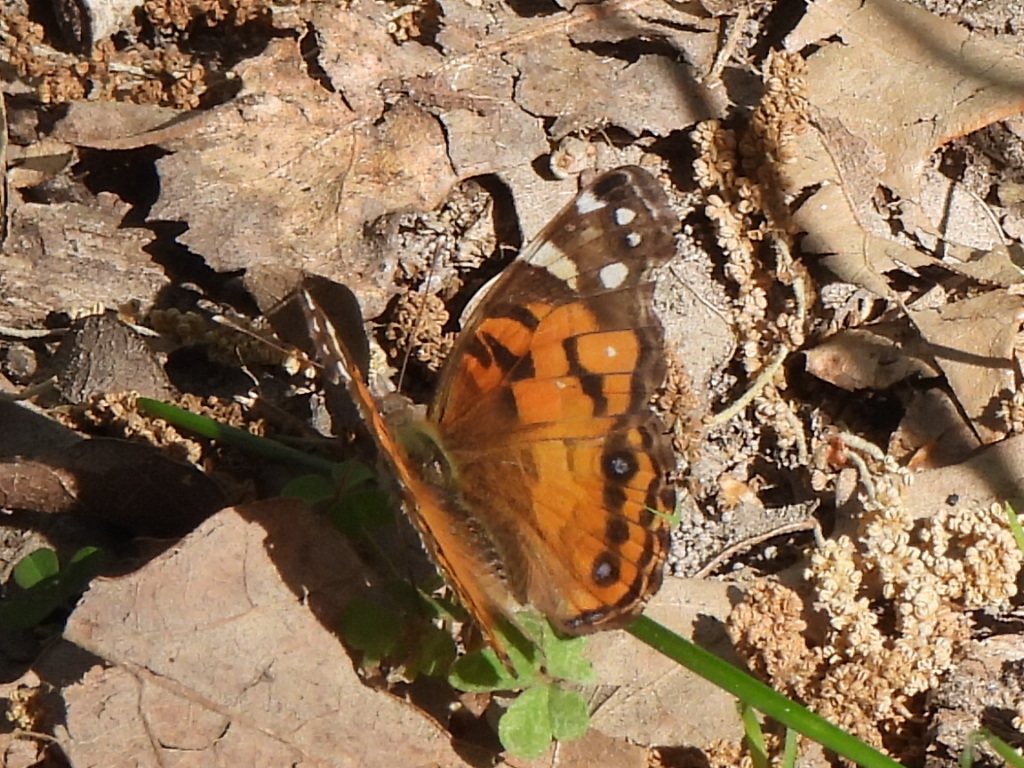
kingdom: Animalia
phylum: Arthropoda
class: Insecta
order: Lepidoptera
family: Nymphalidae
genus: Vanessa
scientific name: Vanessa virginiensis
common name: American lady
